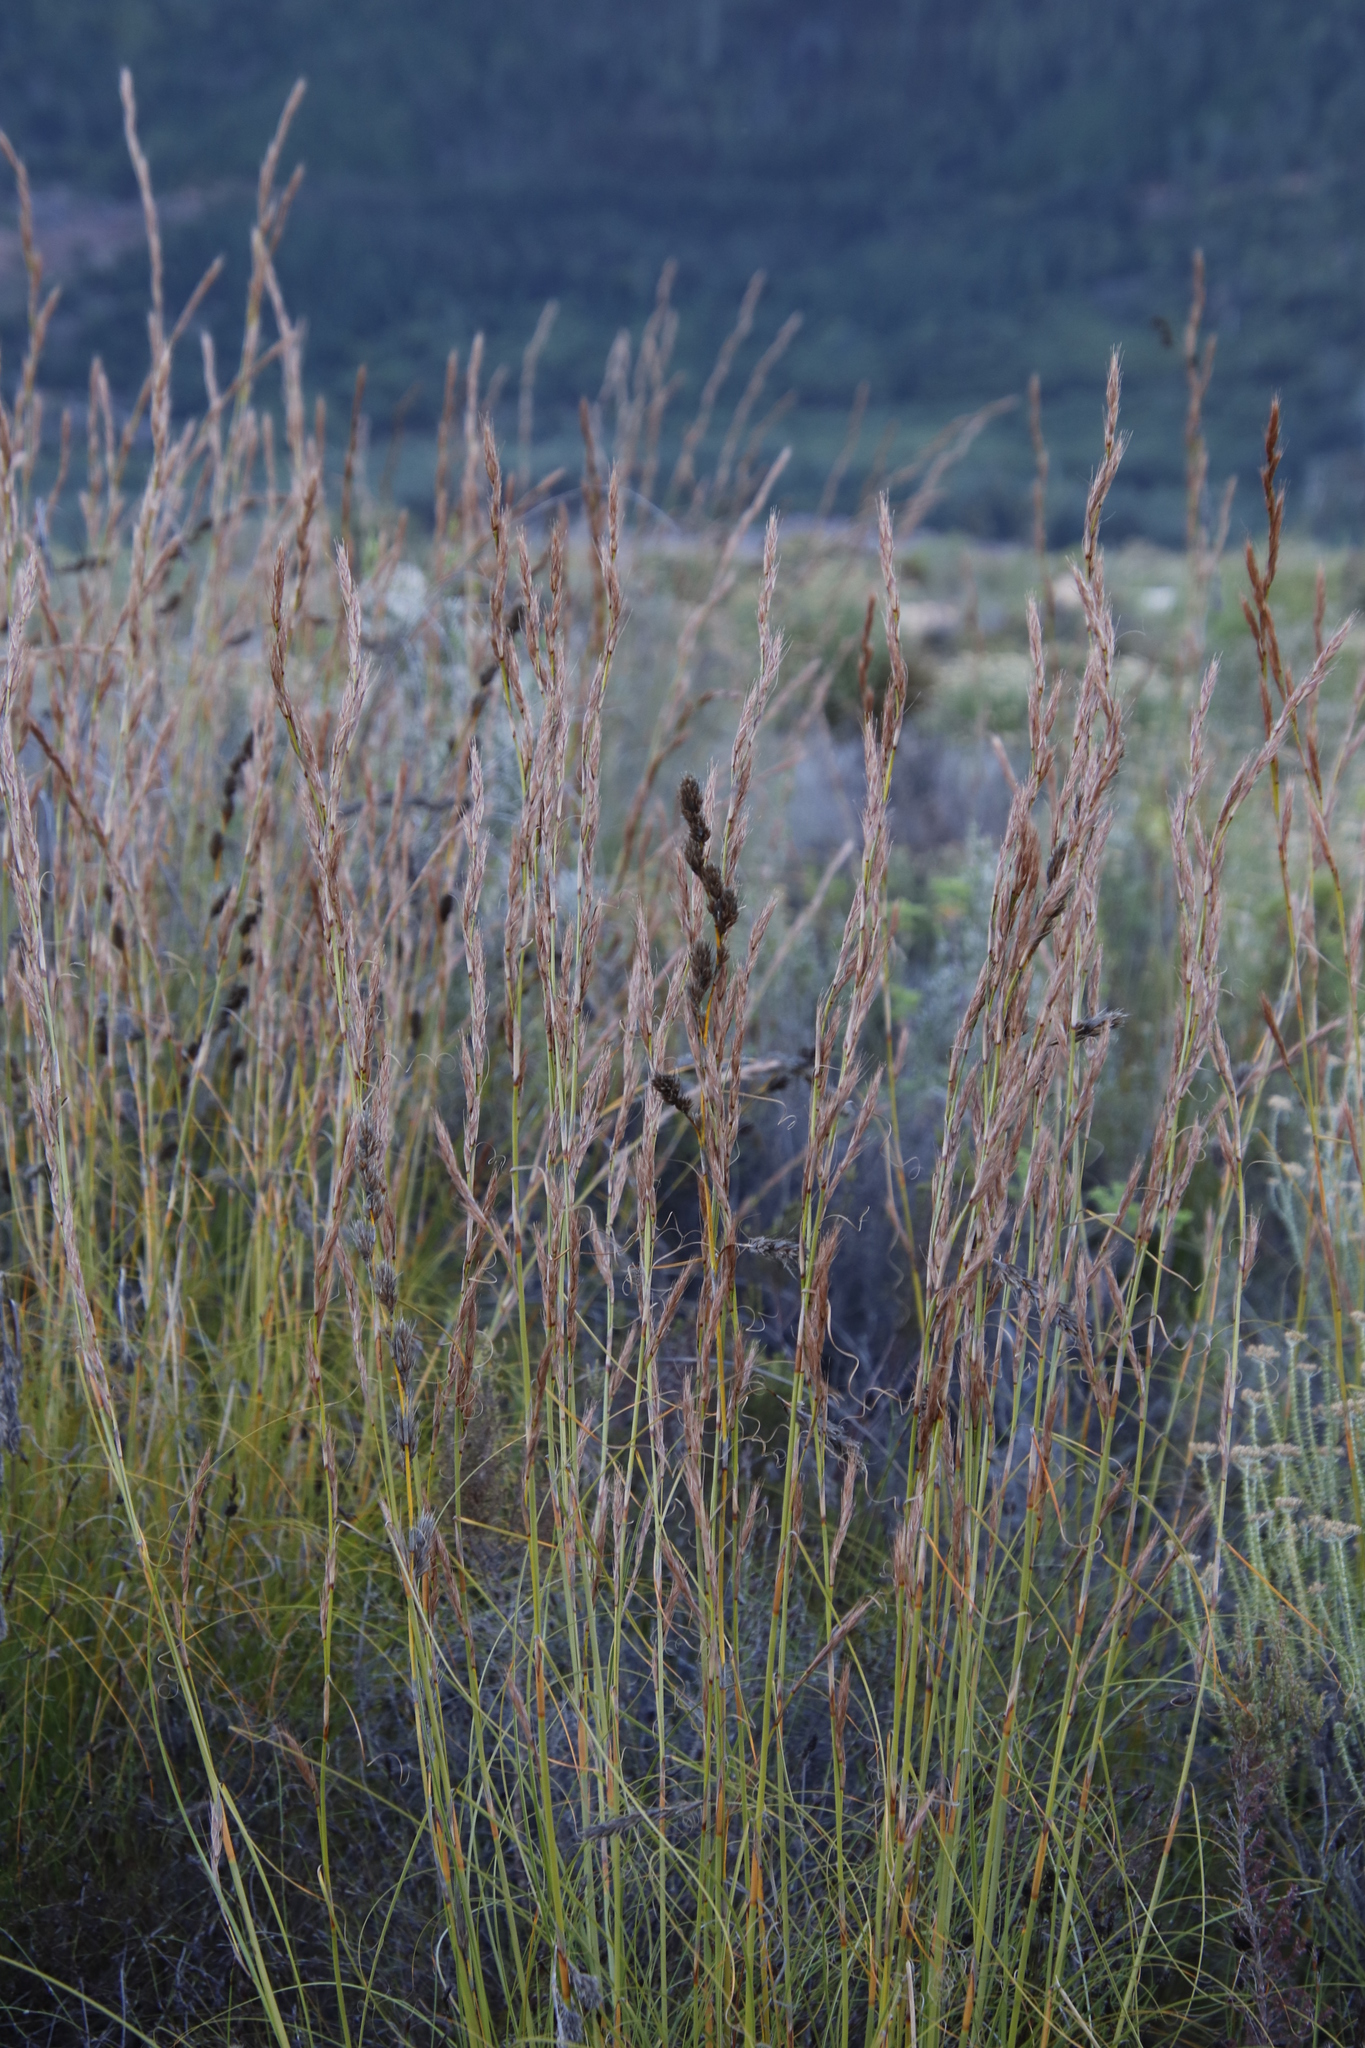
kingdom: Plantae
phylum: Tracheophyta
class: Liliopsida
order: Poales
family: Cyperaceae
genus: Tetraria
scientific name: Tetraria bromoides
